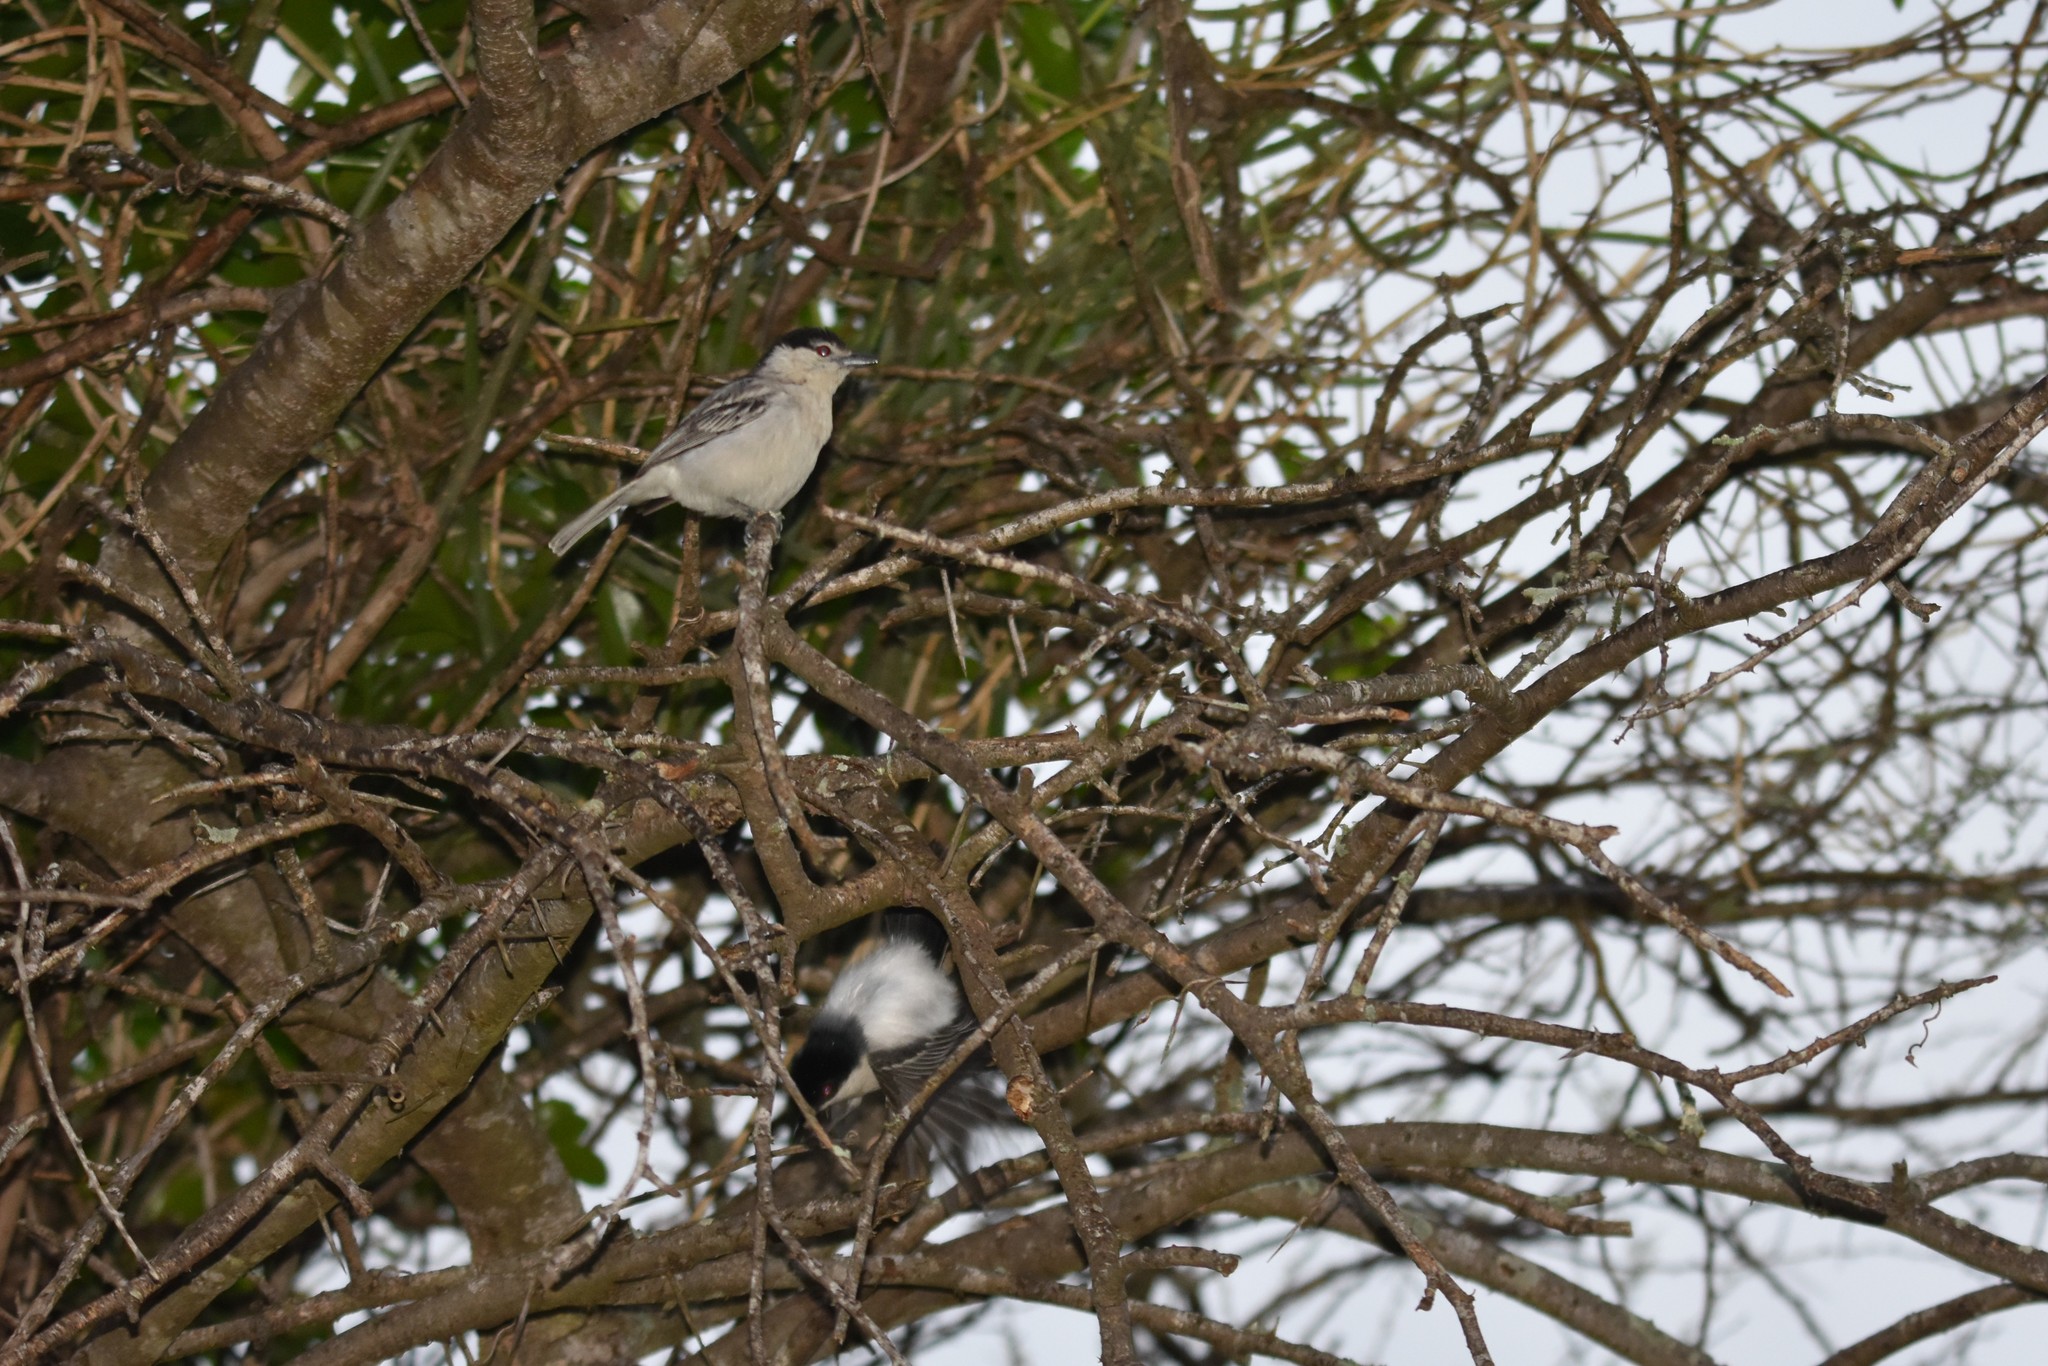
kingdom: Animalia
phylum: Chordata
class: Aves
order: Passeriformes
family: Malaconotidae
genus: Dryoscopus
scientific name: Dryoscopus cubla
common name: Black-backed puffback
